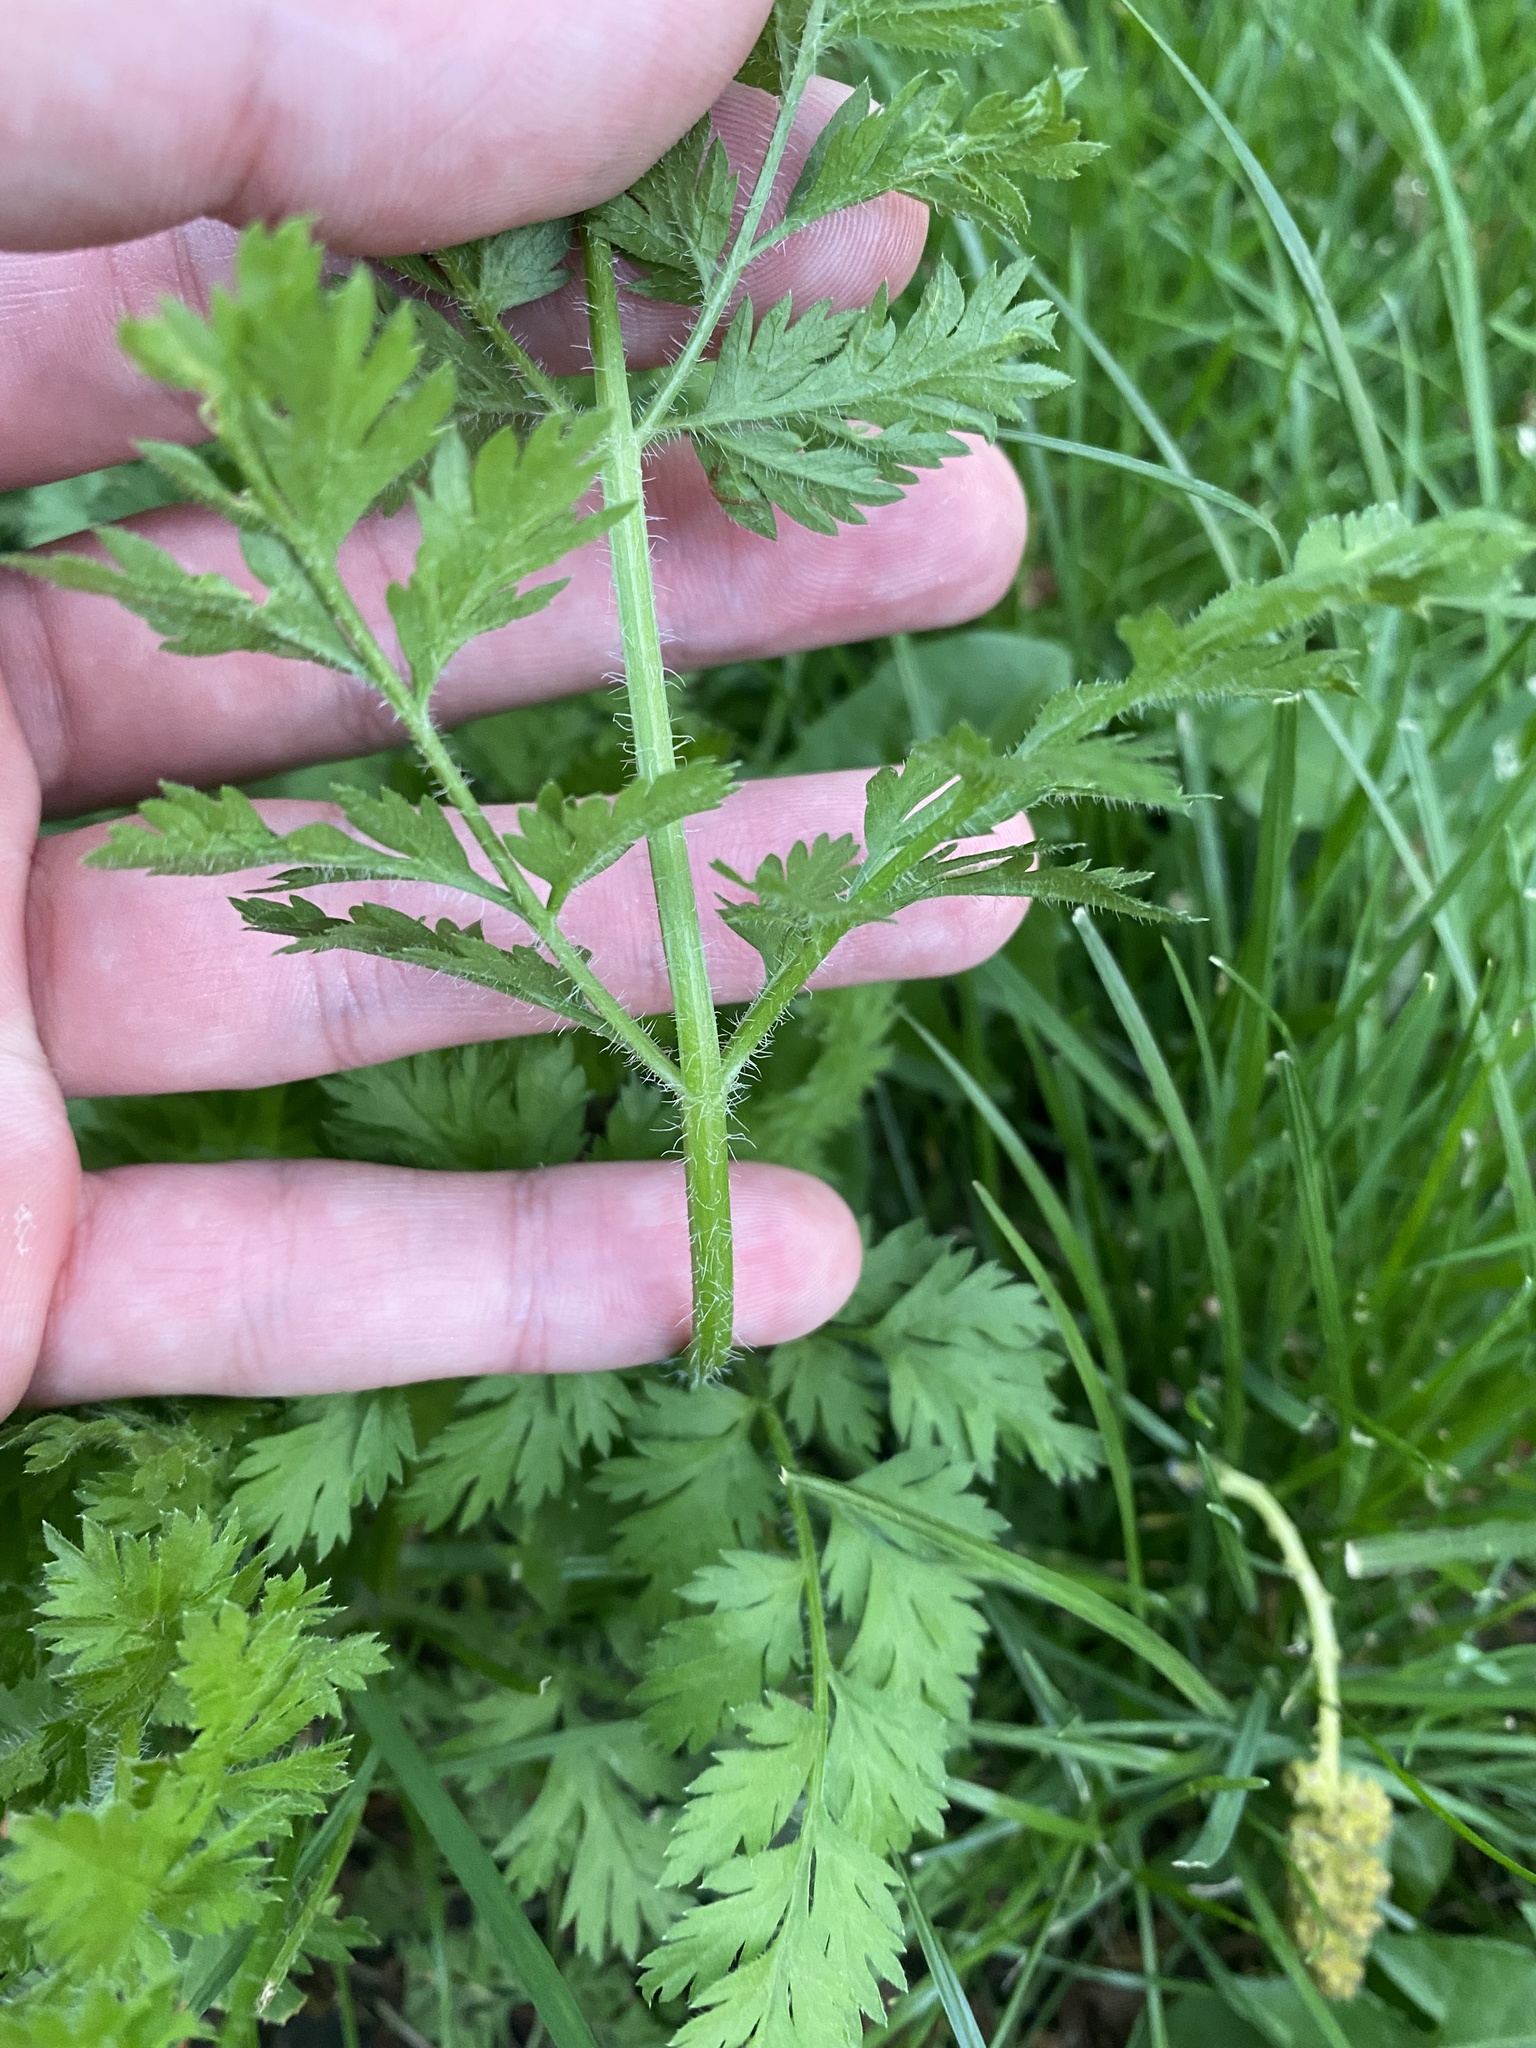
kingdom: Plantae
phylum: Tracheophyta
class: Magnoliopsida
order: Apiales
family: Apiaceae
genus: Daucus
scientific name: Daucus carota
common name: Wild carrot
